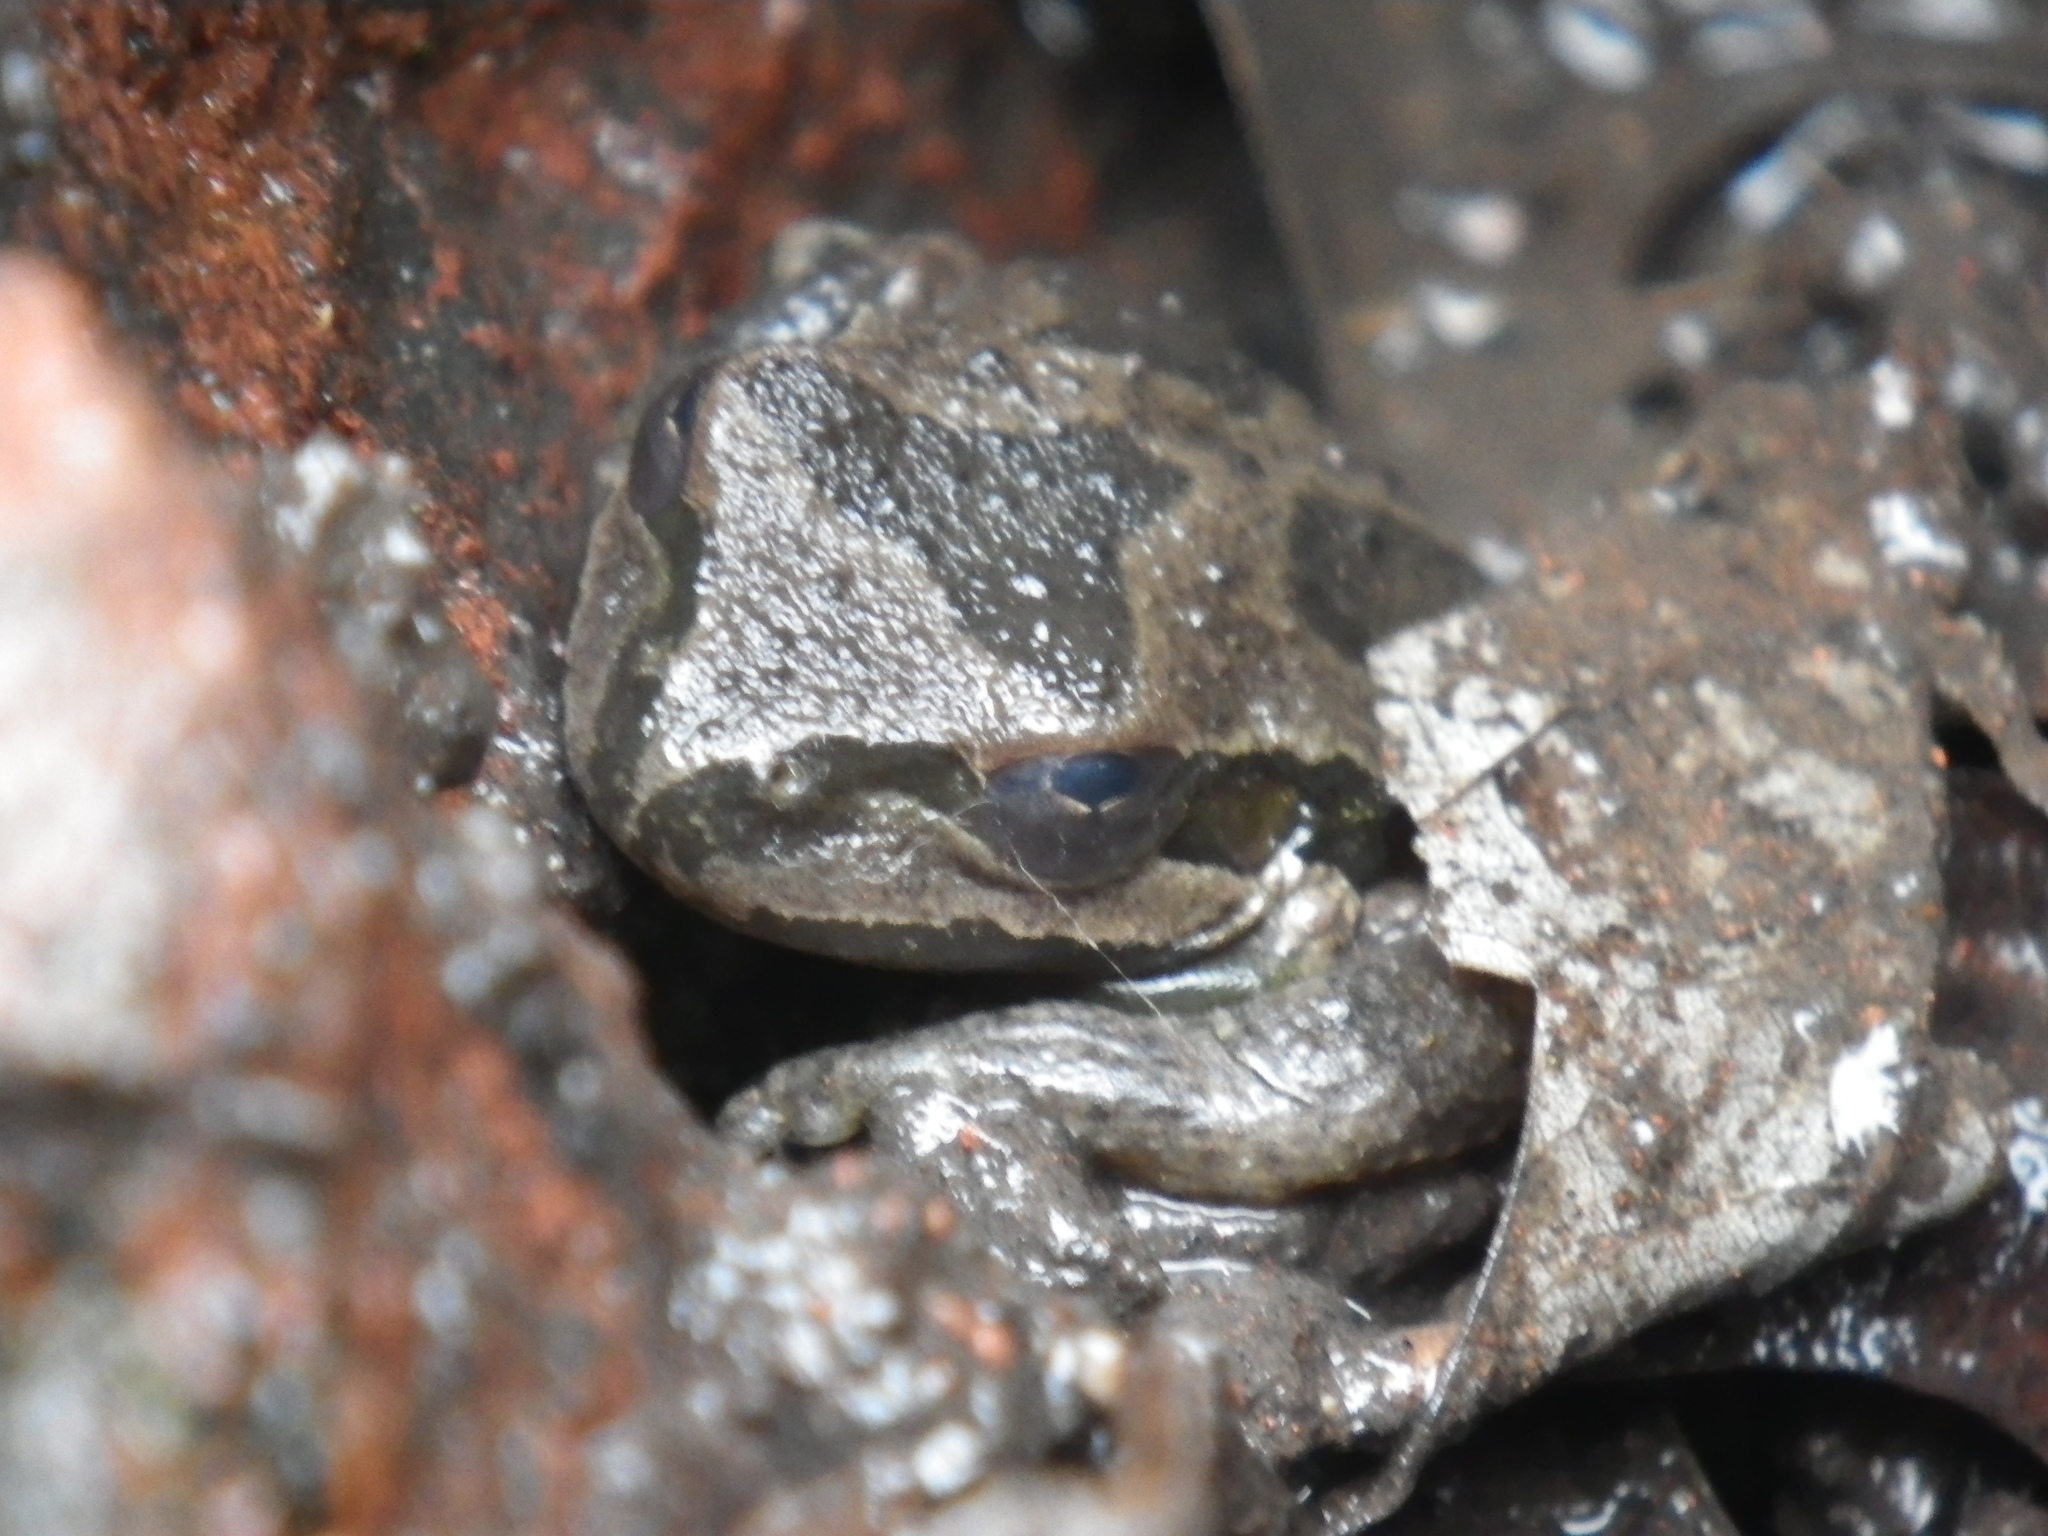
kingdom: Animalia
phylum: Chordata
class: Amphibia
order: Anura
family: Hylidae
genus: Pseudacris
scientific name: Pseudacris regilla
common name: Pacific chorus frog
